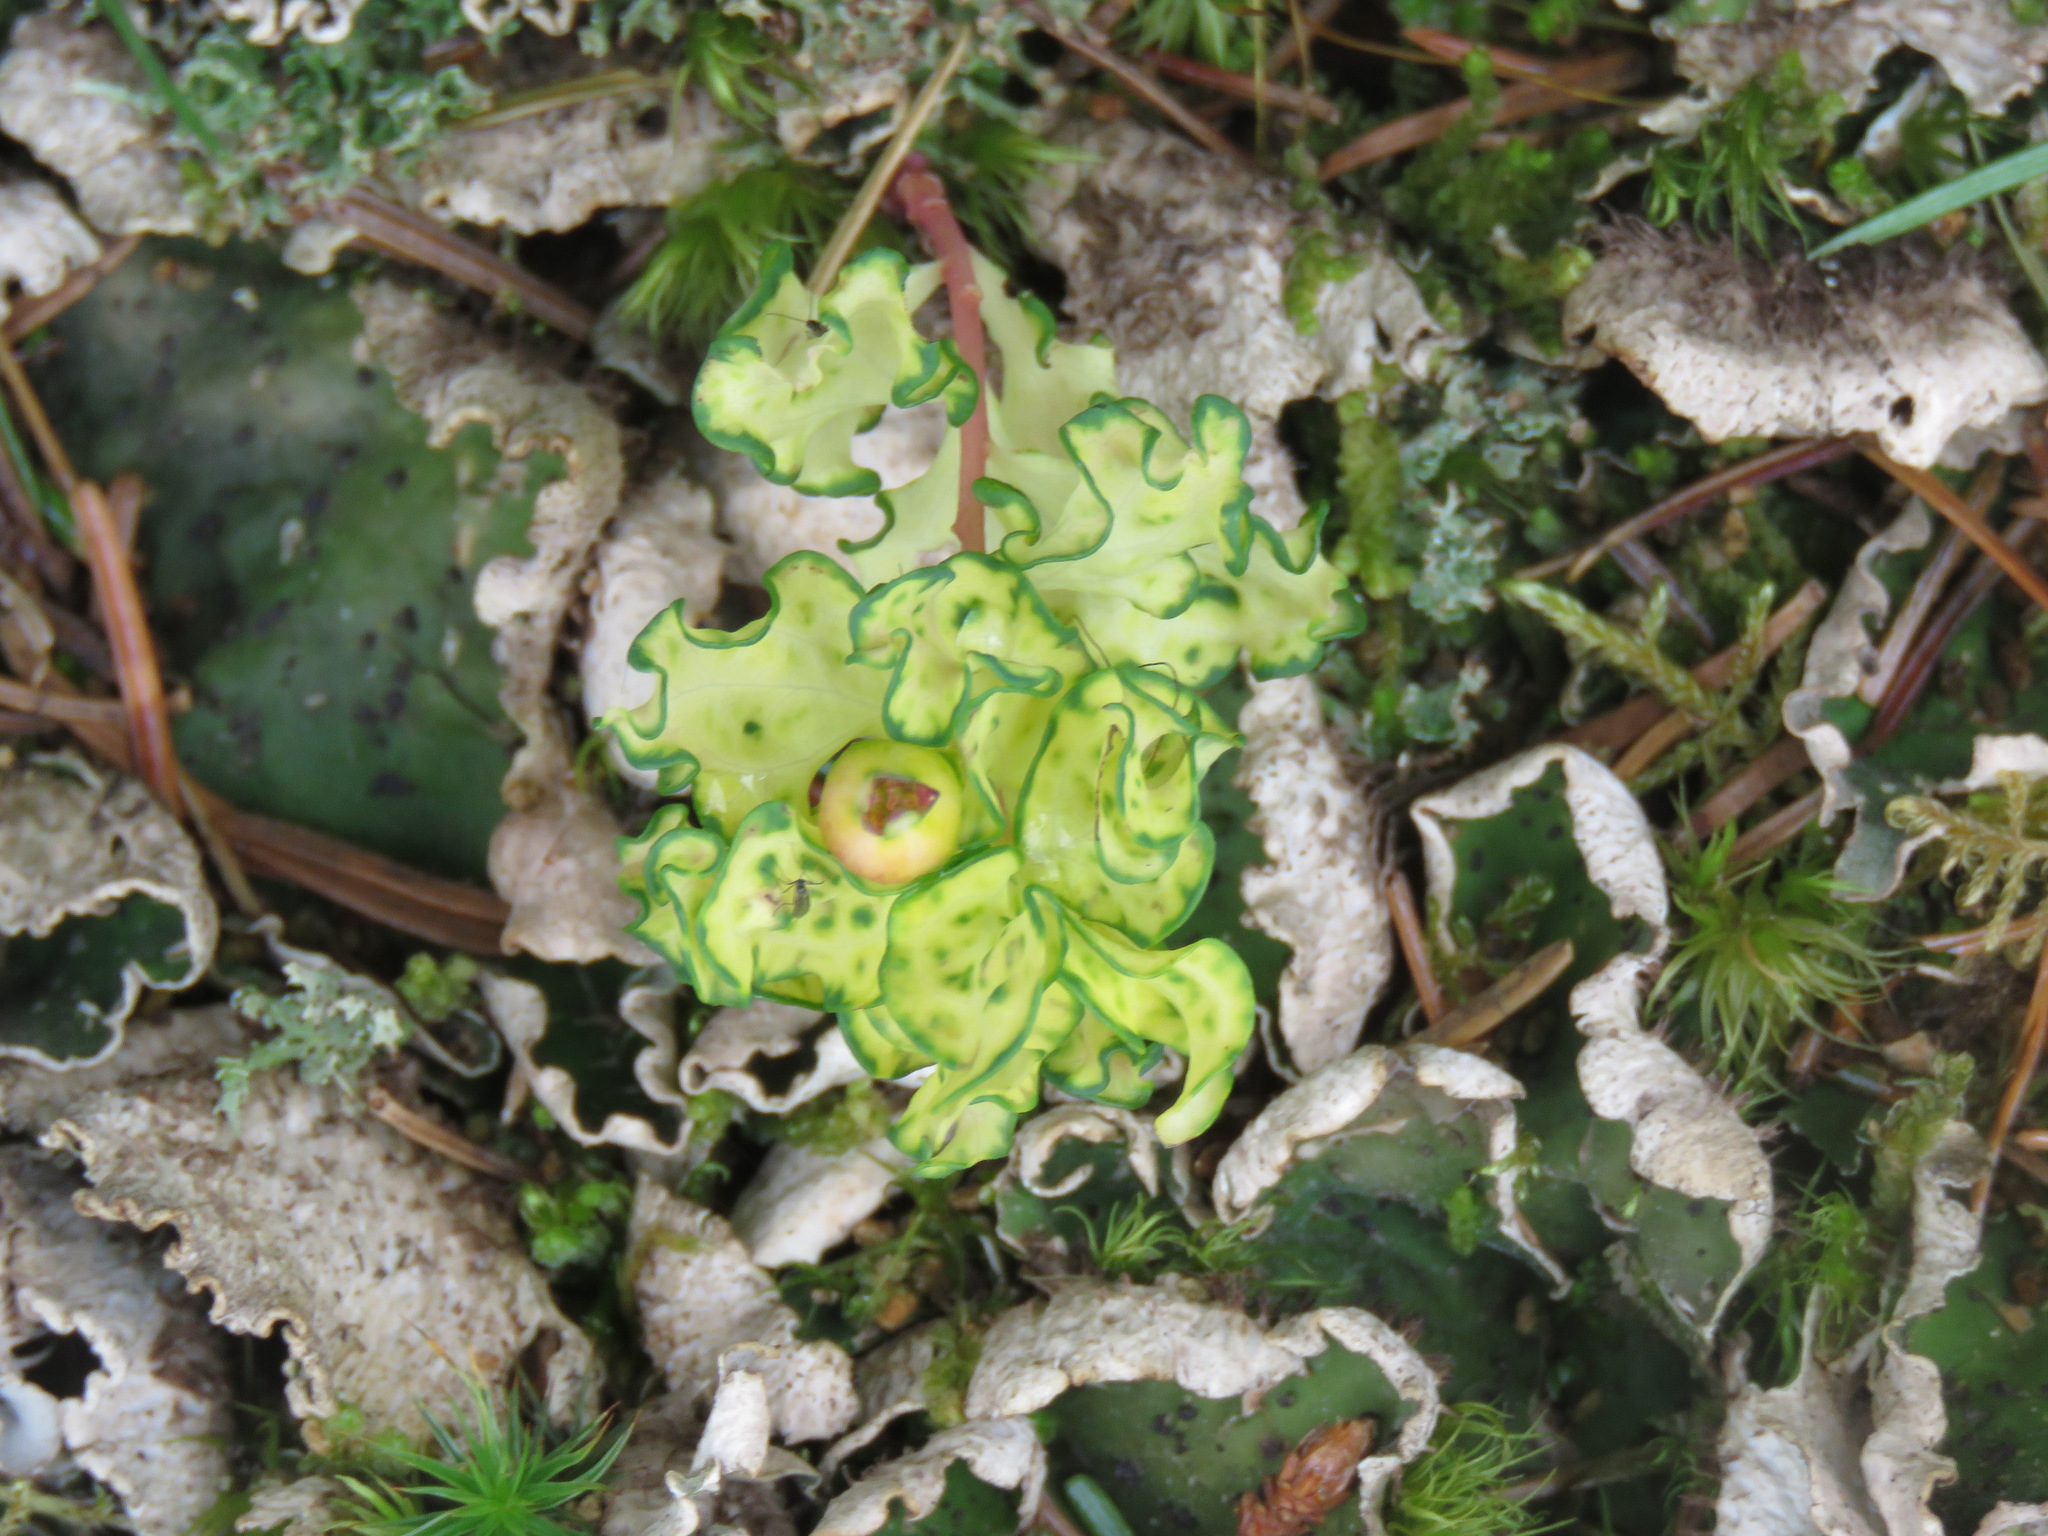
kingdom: Plantae
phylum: Tracheophyta
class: Magnoliopsida
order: Santalales
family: Comandraceae
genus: Geocaulon
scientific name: Geocaulon lividum
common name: Earthberry
